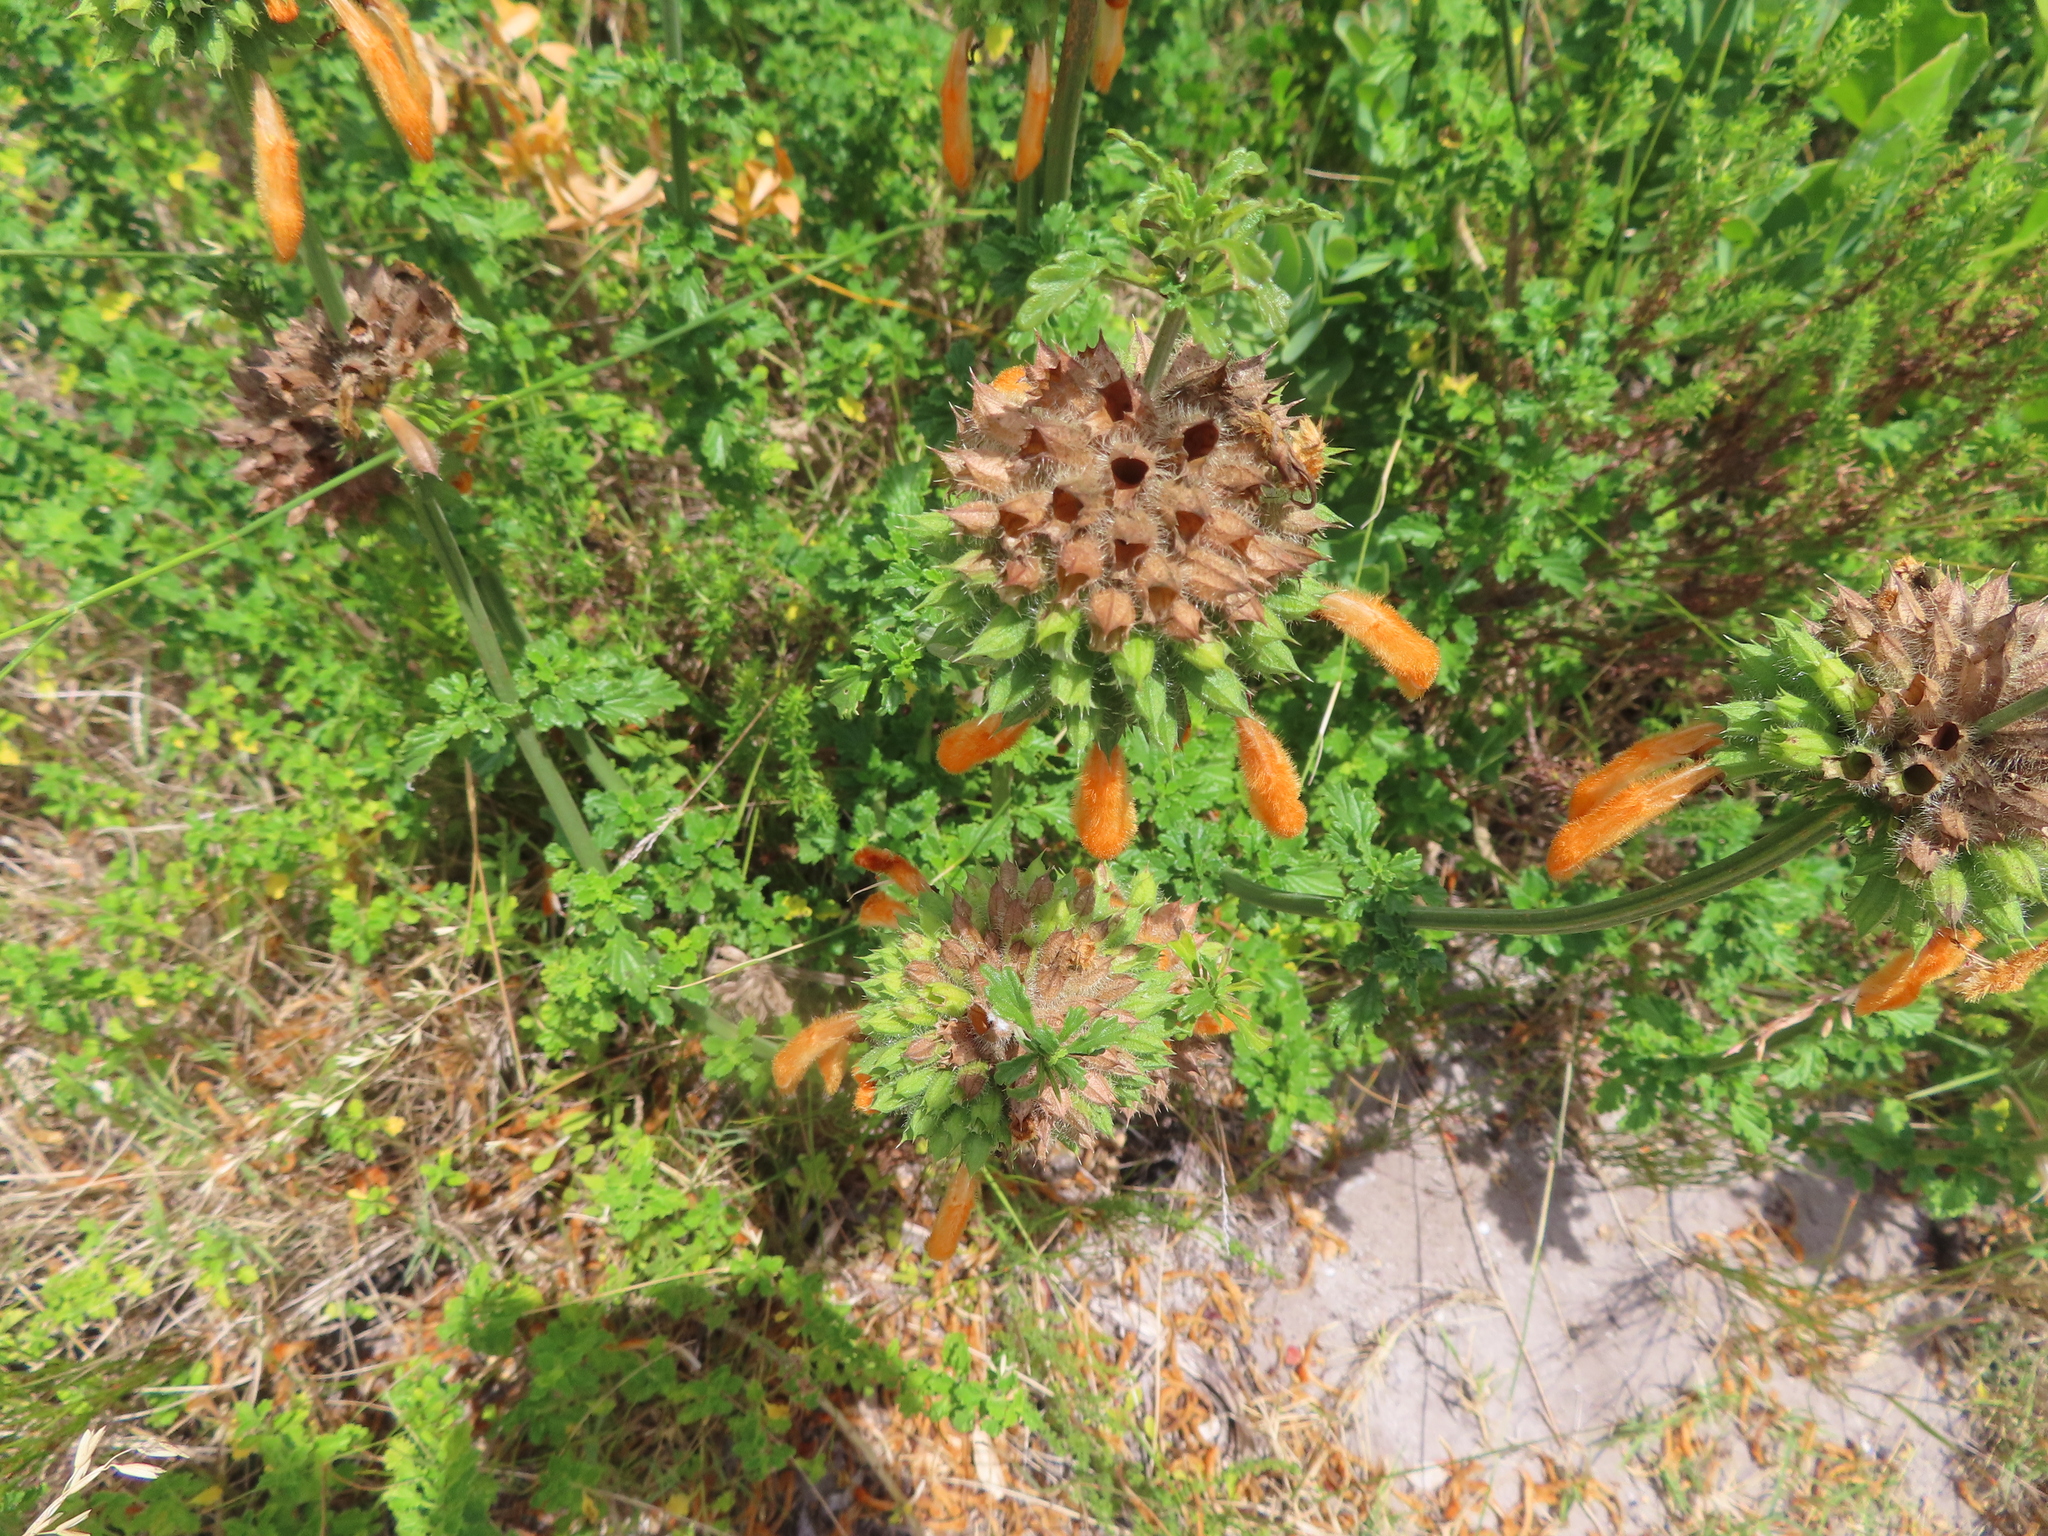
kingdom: Plantae
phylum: Tracheophyta
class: Magnoliopsida
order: Lamiales
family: Lamiaceae
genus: Leonotis
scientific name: Leonotis ocymifolia
